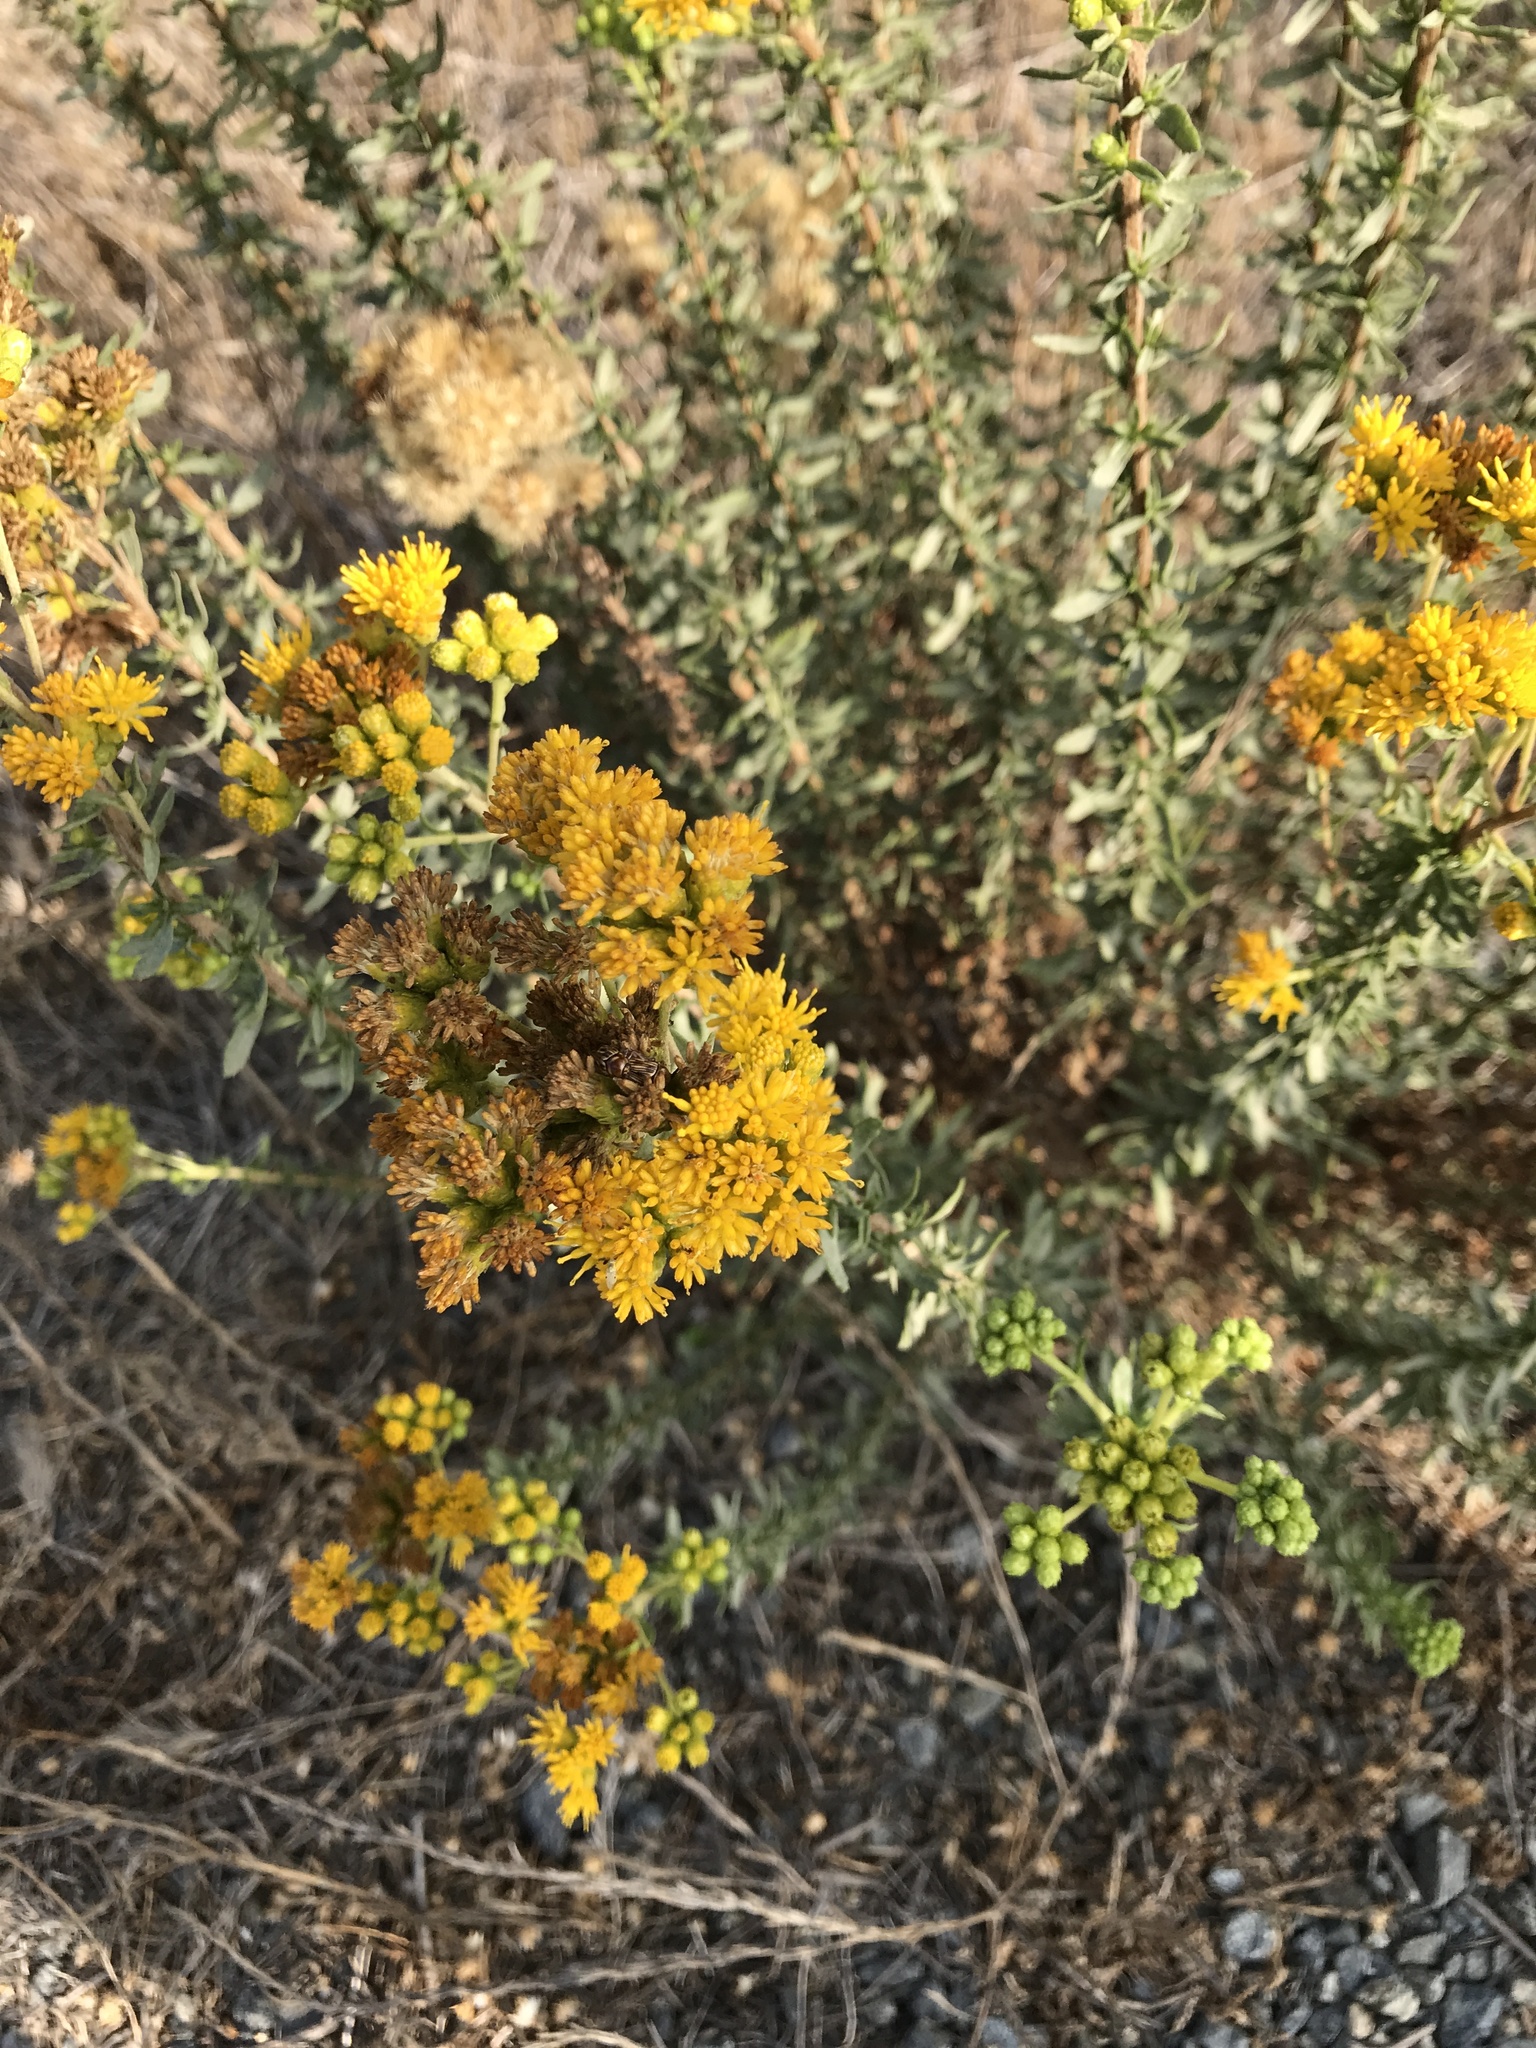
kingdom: Plantae
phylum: Tracheophyta
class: Magnoliopsida
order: Asterales
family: Asteraceae
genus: Isocoma
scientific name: Isocoma menziesii
